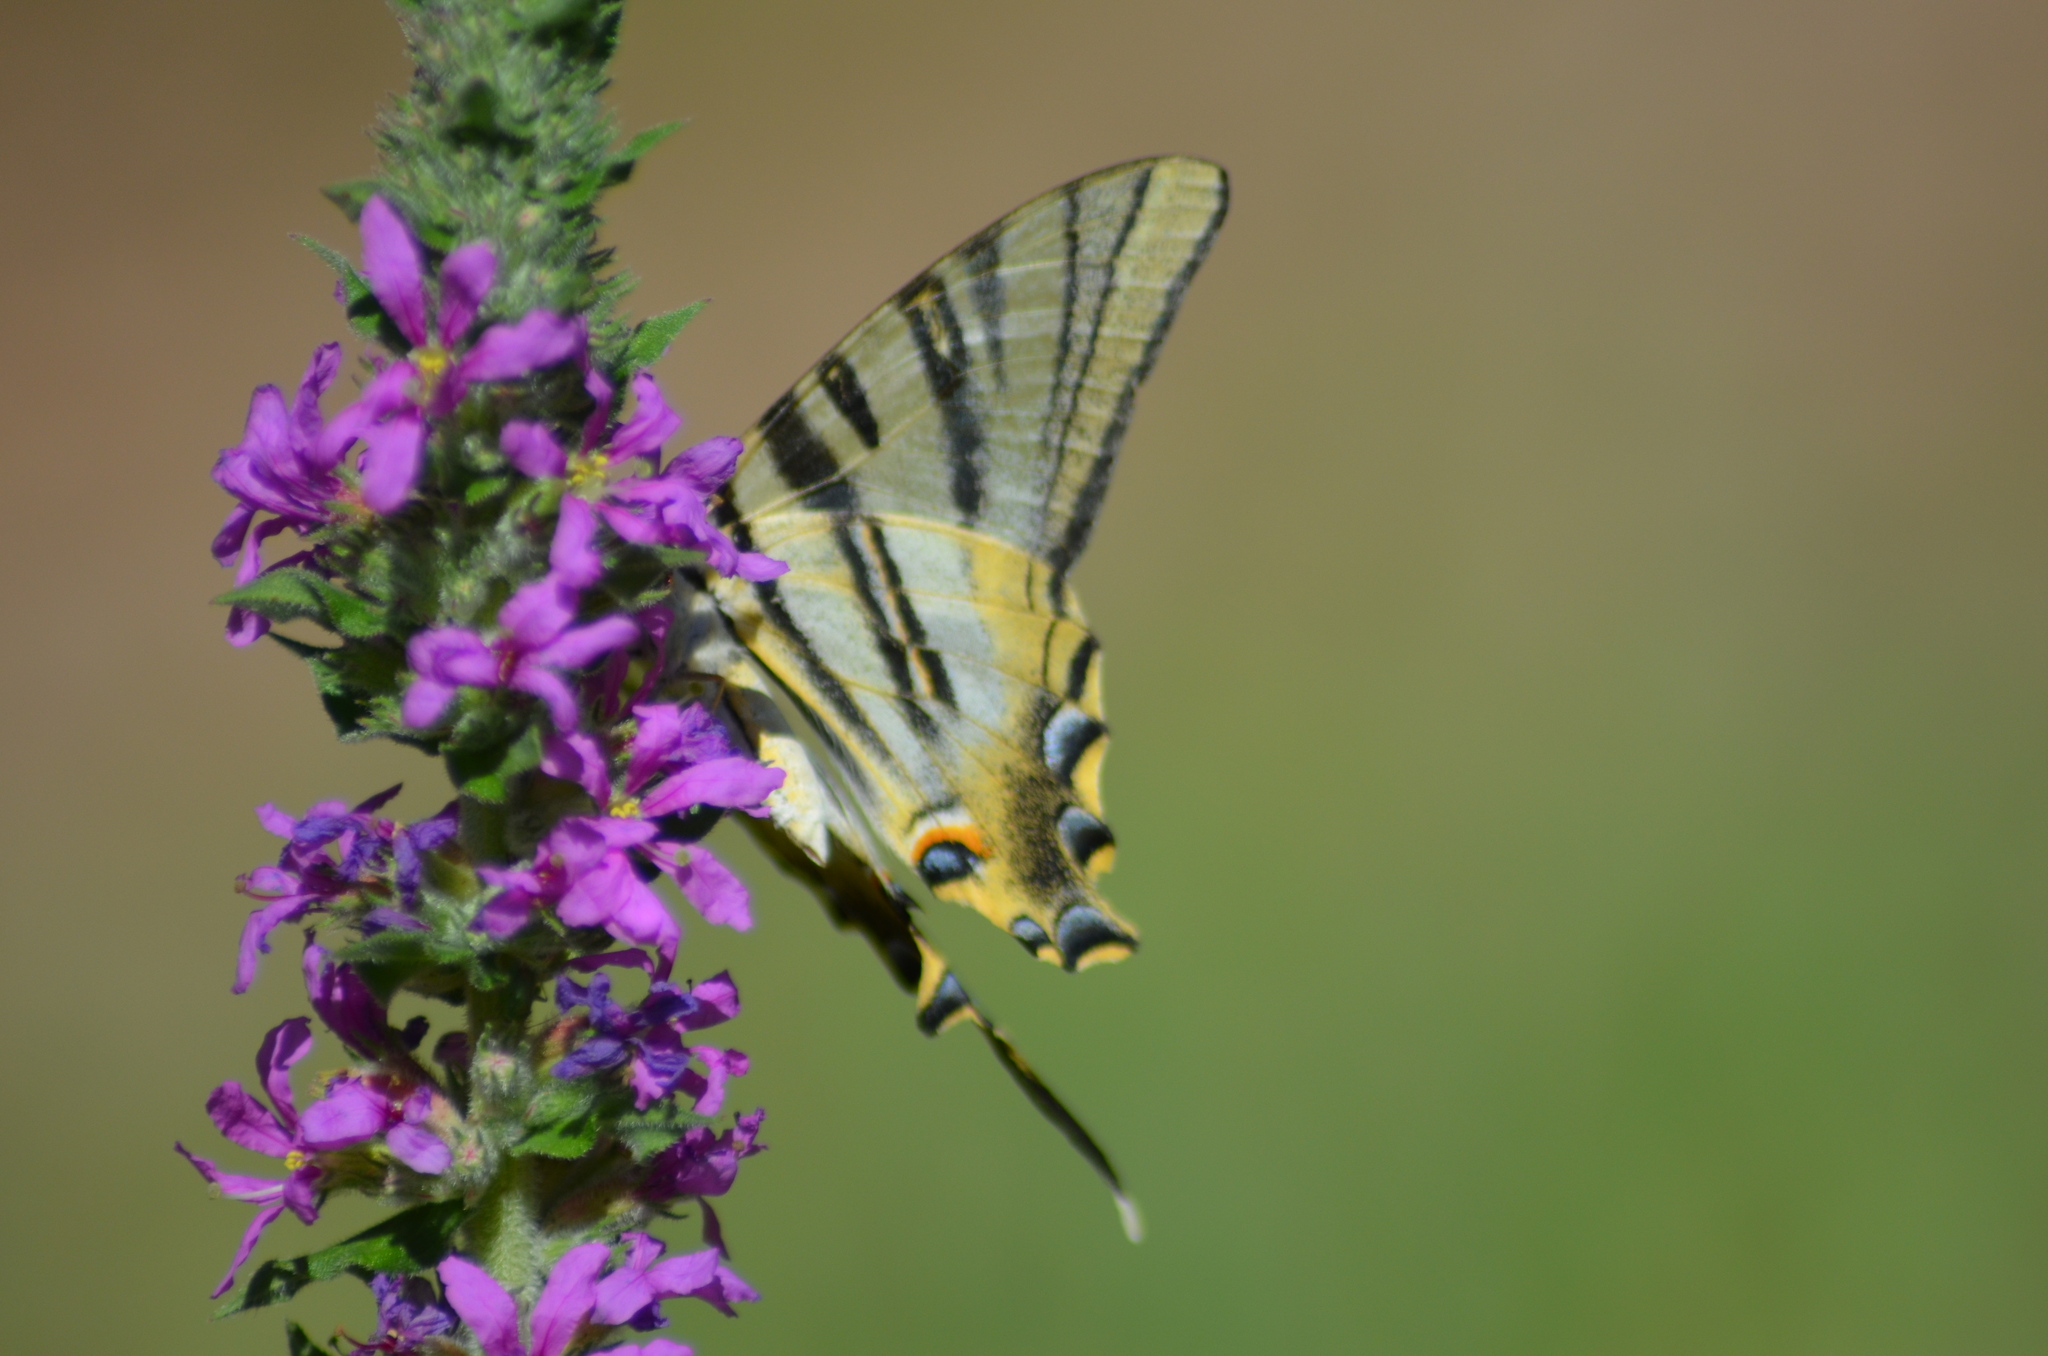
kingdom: Animalia
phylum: Arthropoda
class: Insecta
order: Lepidoptera
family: Papilionidae
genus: Iphiclides
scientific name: Iphiclides feisthamelii
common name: Iberian scarce swallowtail
